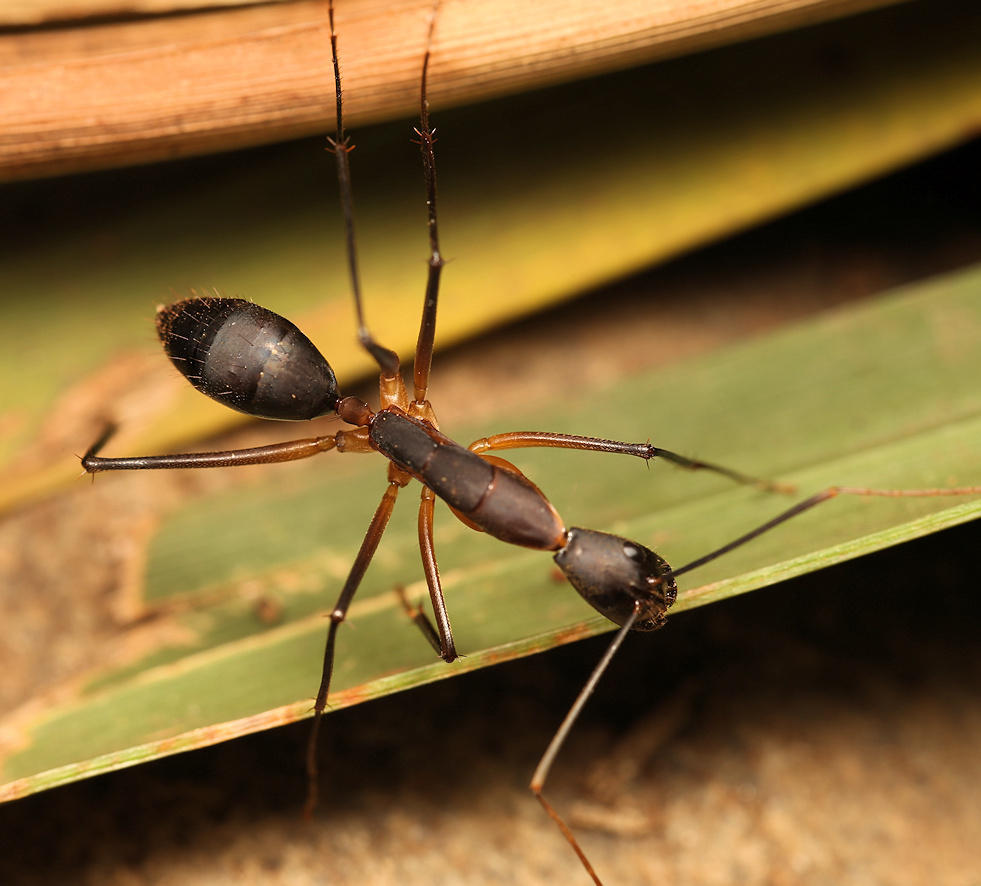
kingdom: Animalia
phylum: Arthropoda
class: Insecta
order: Hymenoptera
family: Formicidae
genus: Camponotus
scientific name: Camponotus etiolipes
